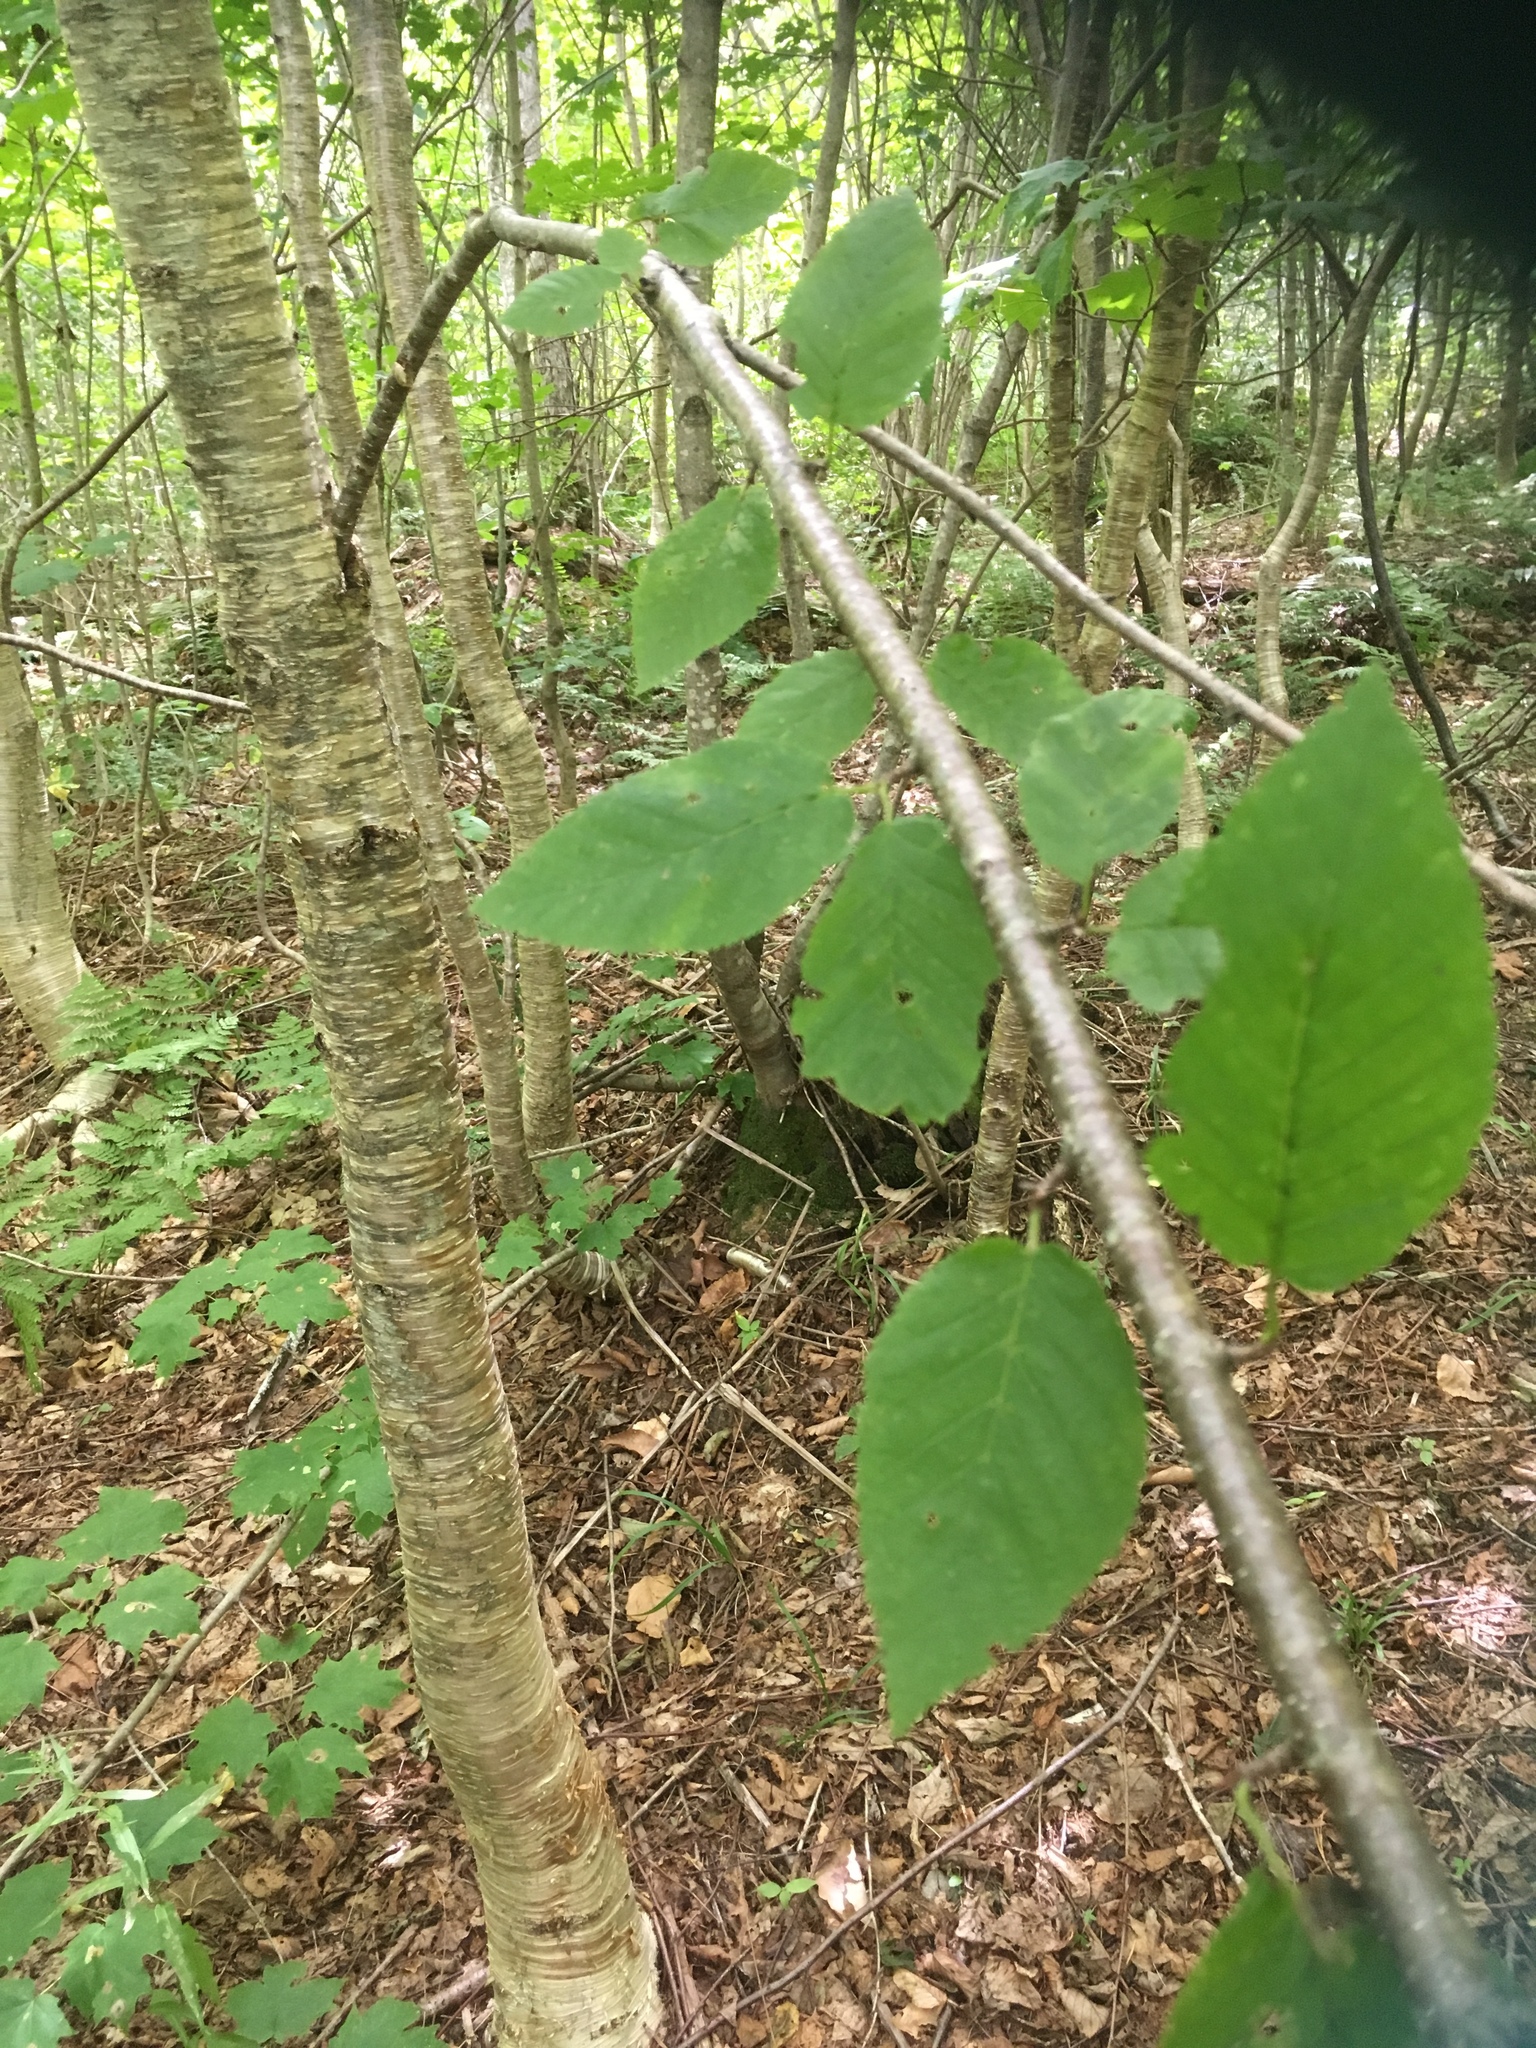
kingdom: Plantae
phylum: Tracheophyta
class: Magnoliopsida
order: Fagales
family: Betulaceae
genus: Betula
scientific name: Betula alleghaniensis
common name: Yellow birch
